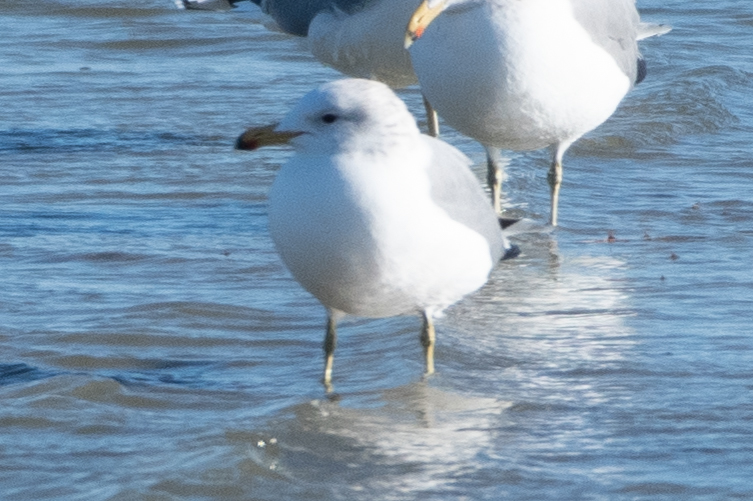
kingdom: Animalia
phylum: Chordata
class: Aves
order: Charadriiformes
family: Laridae
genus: Larus
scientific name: Larus californicus
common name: California gull
